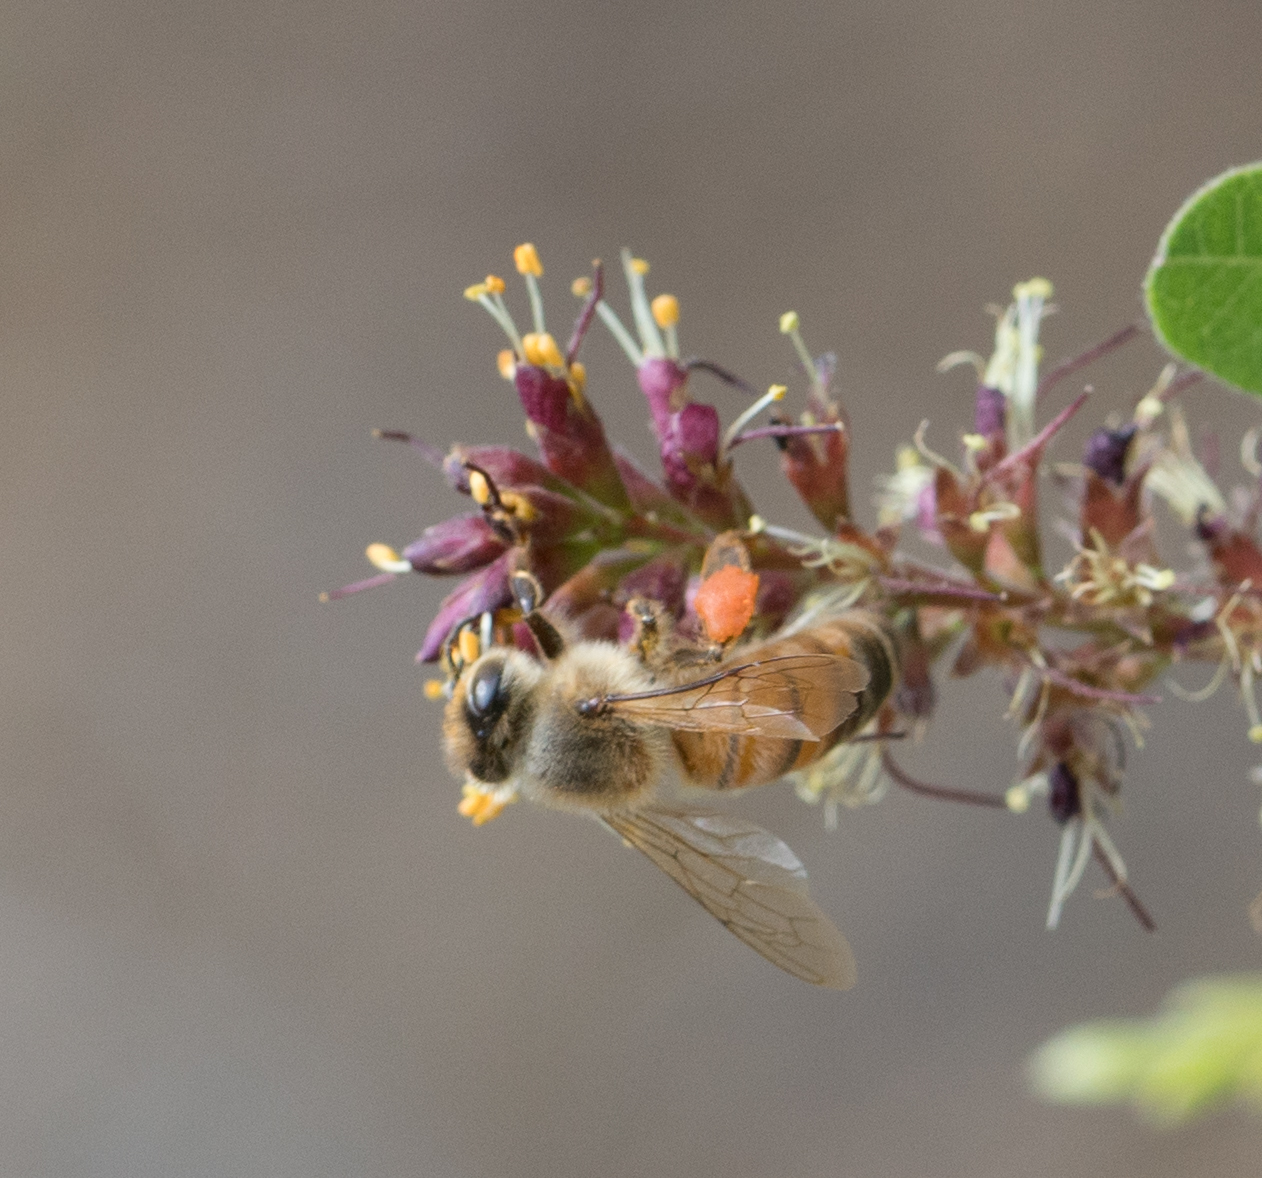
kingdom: Animalia
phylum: Arthropoda
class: Insecta
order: Hymenoptera
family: Apidae
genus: Apis
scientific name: Apis mellifera
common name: Honey bee
